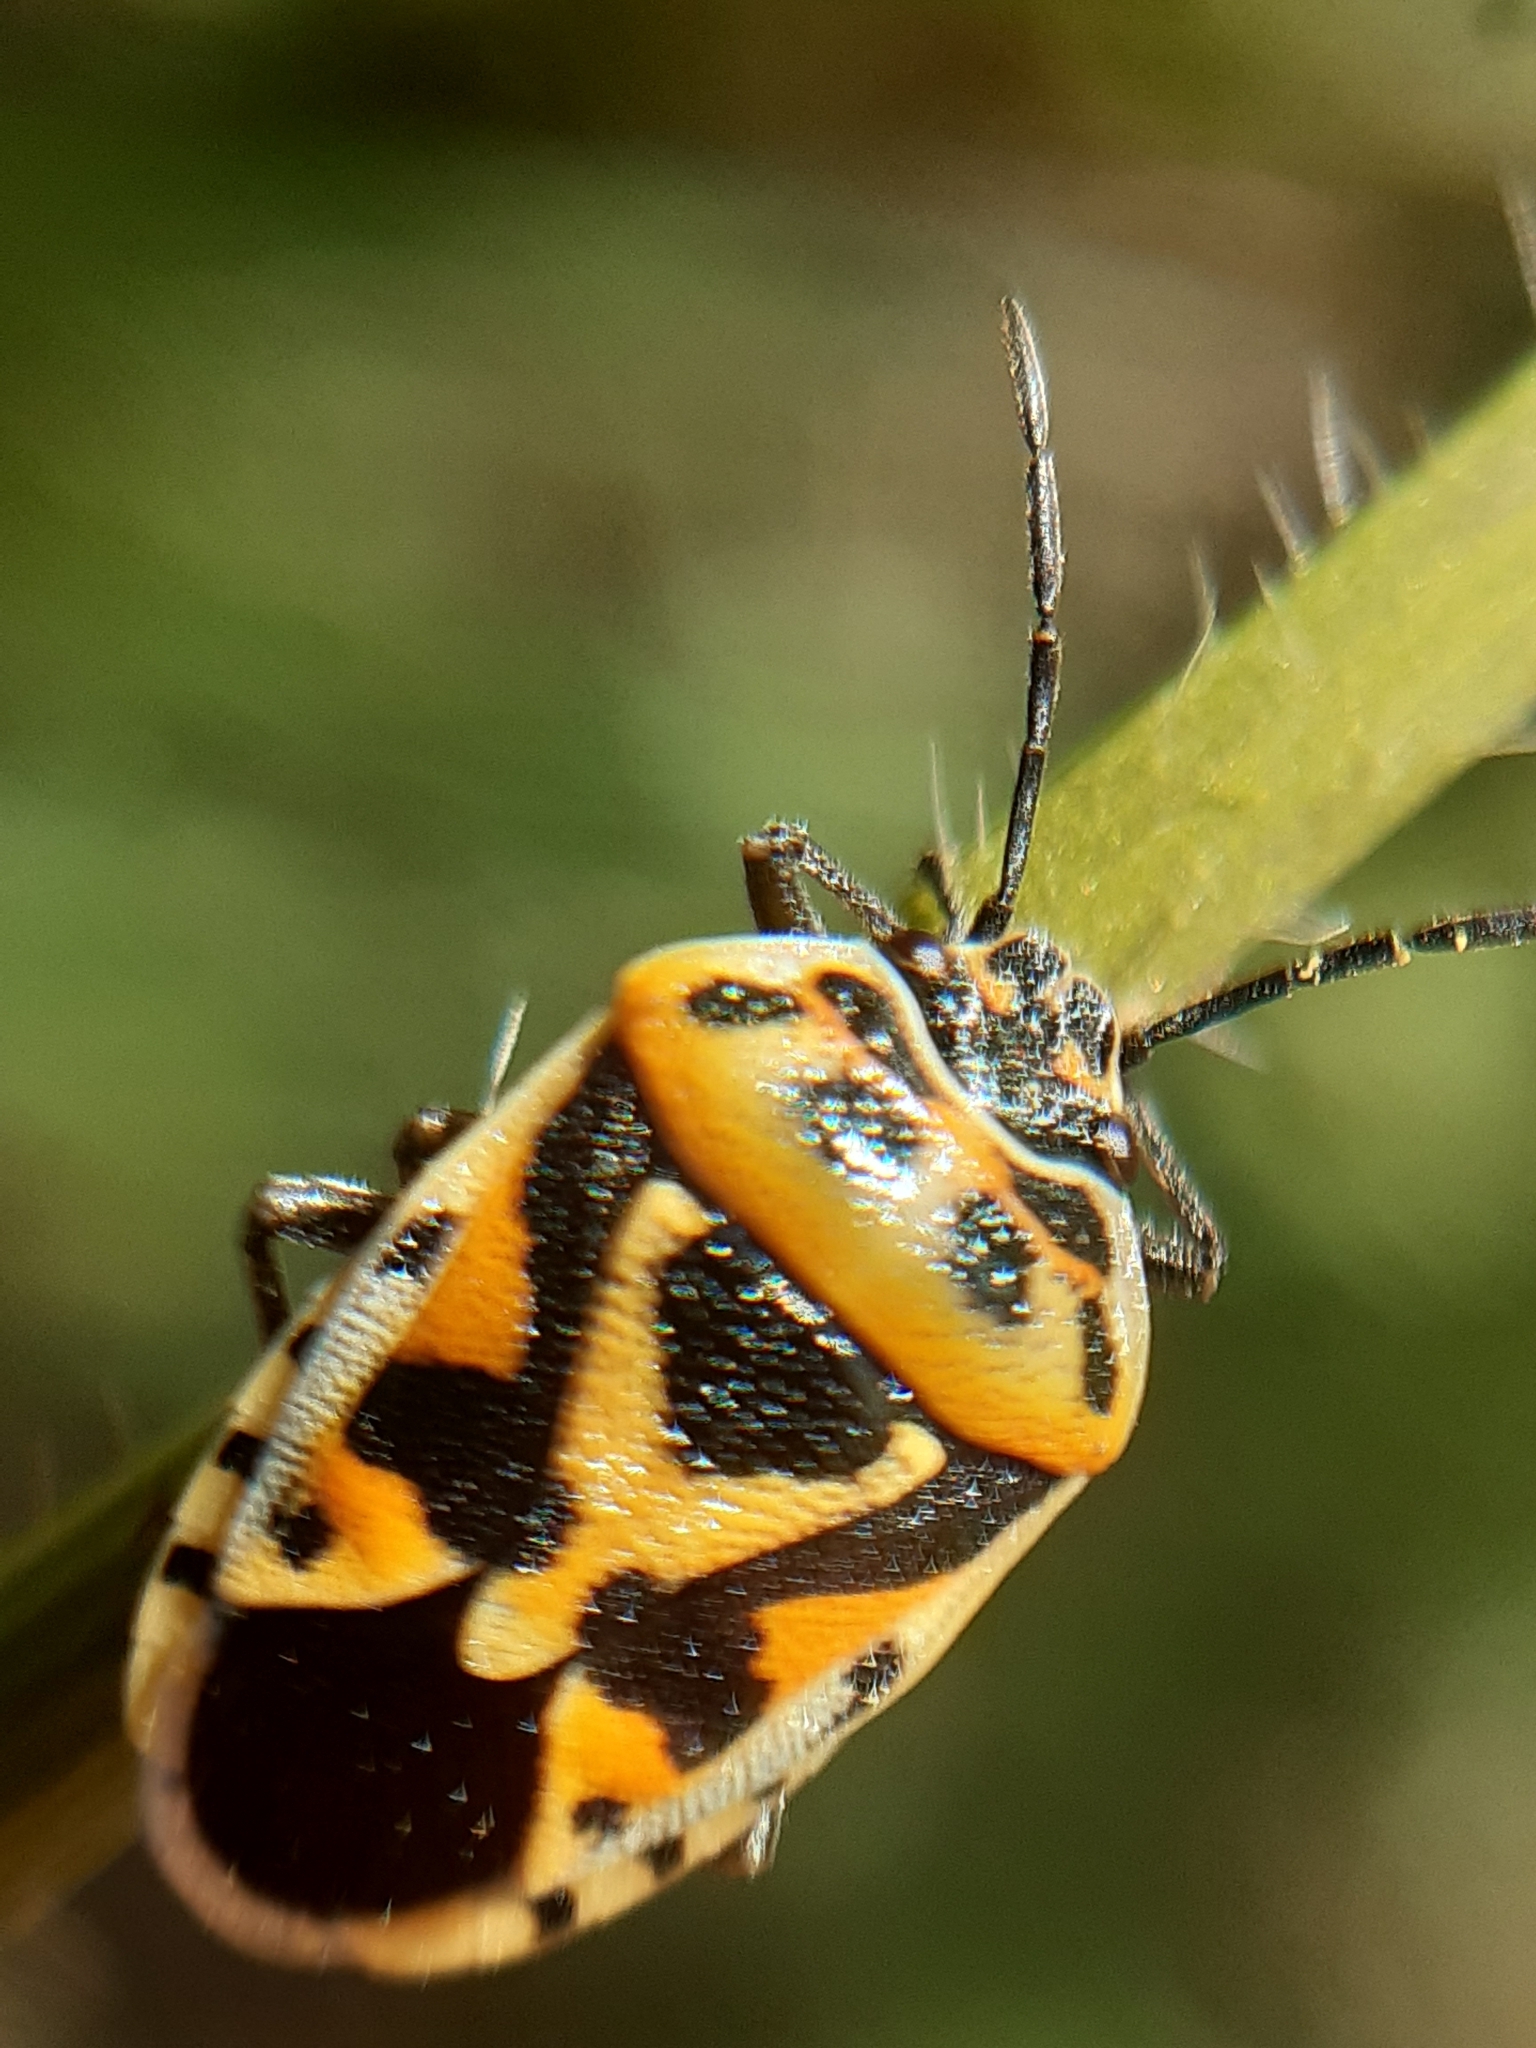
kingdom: Animalia
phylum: Arthropoda
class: Insecta
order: Hemiptera
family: Pentatomidae
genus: Eurydema
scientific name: Eurydema ornata
